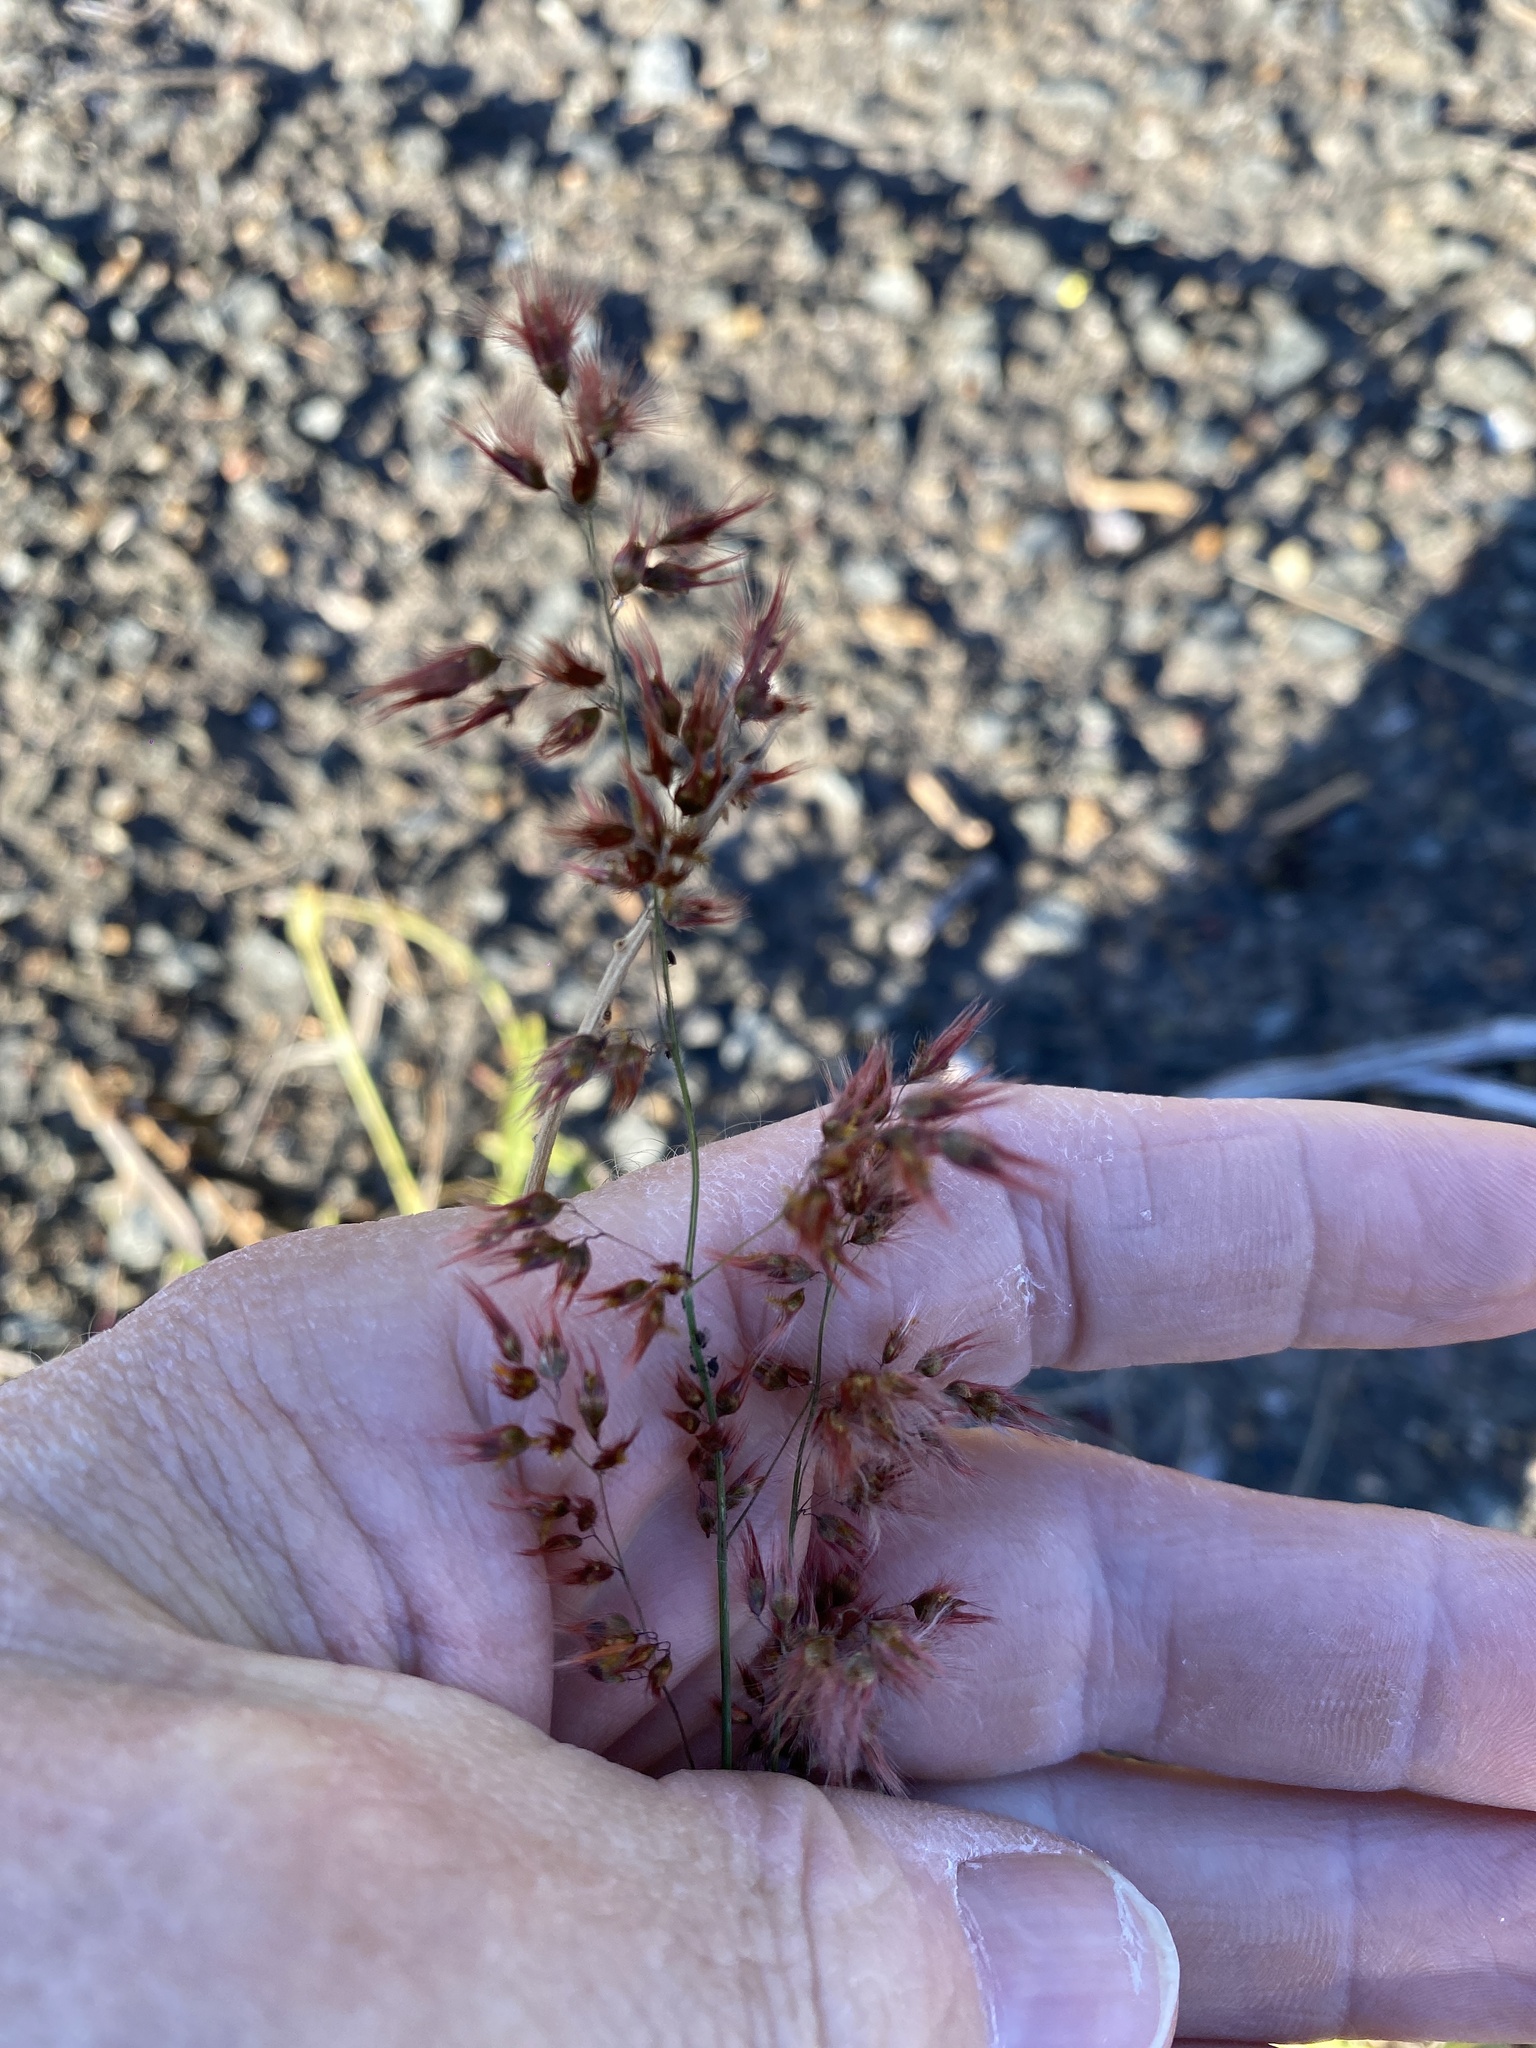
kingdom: Plantae
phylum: Tracheophyta
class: Liliopsida
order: Poales
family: Poaceae
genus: Melinis
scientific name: Melinis repens
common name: Rose natal grass
